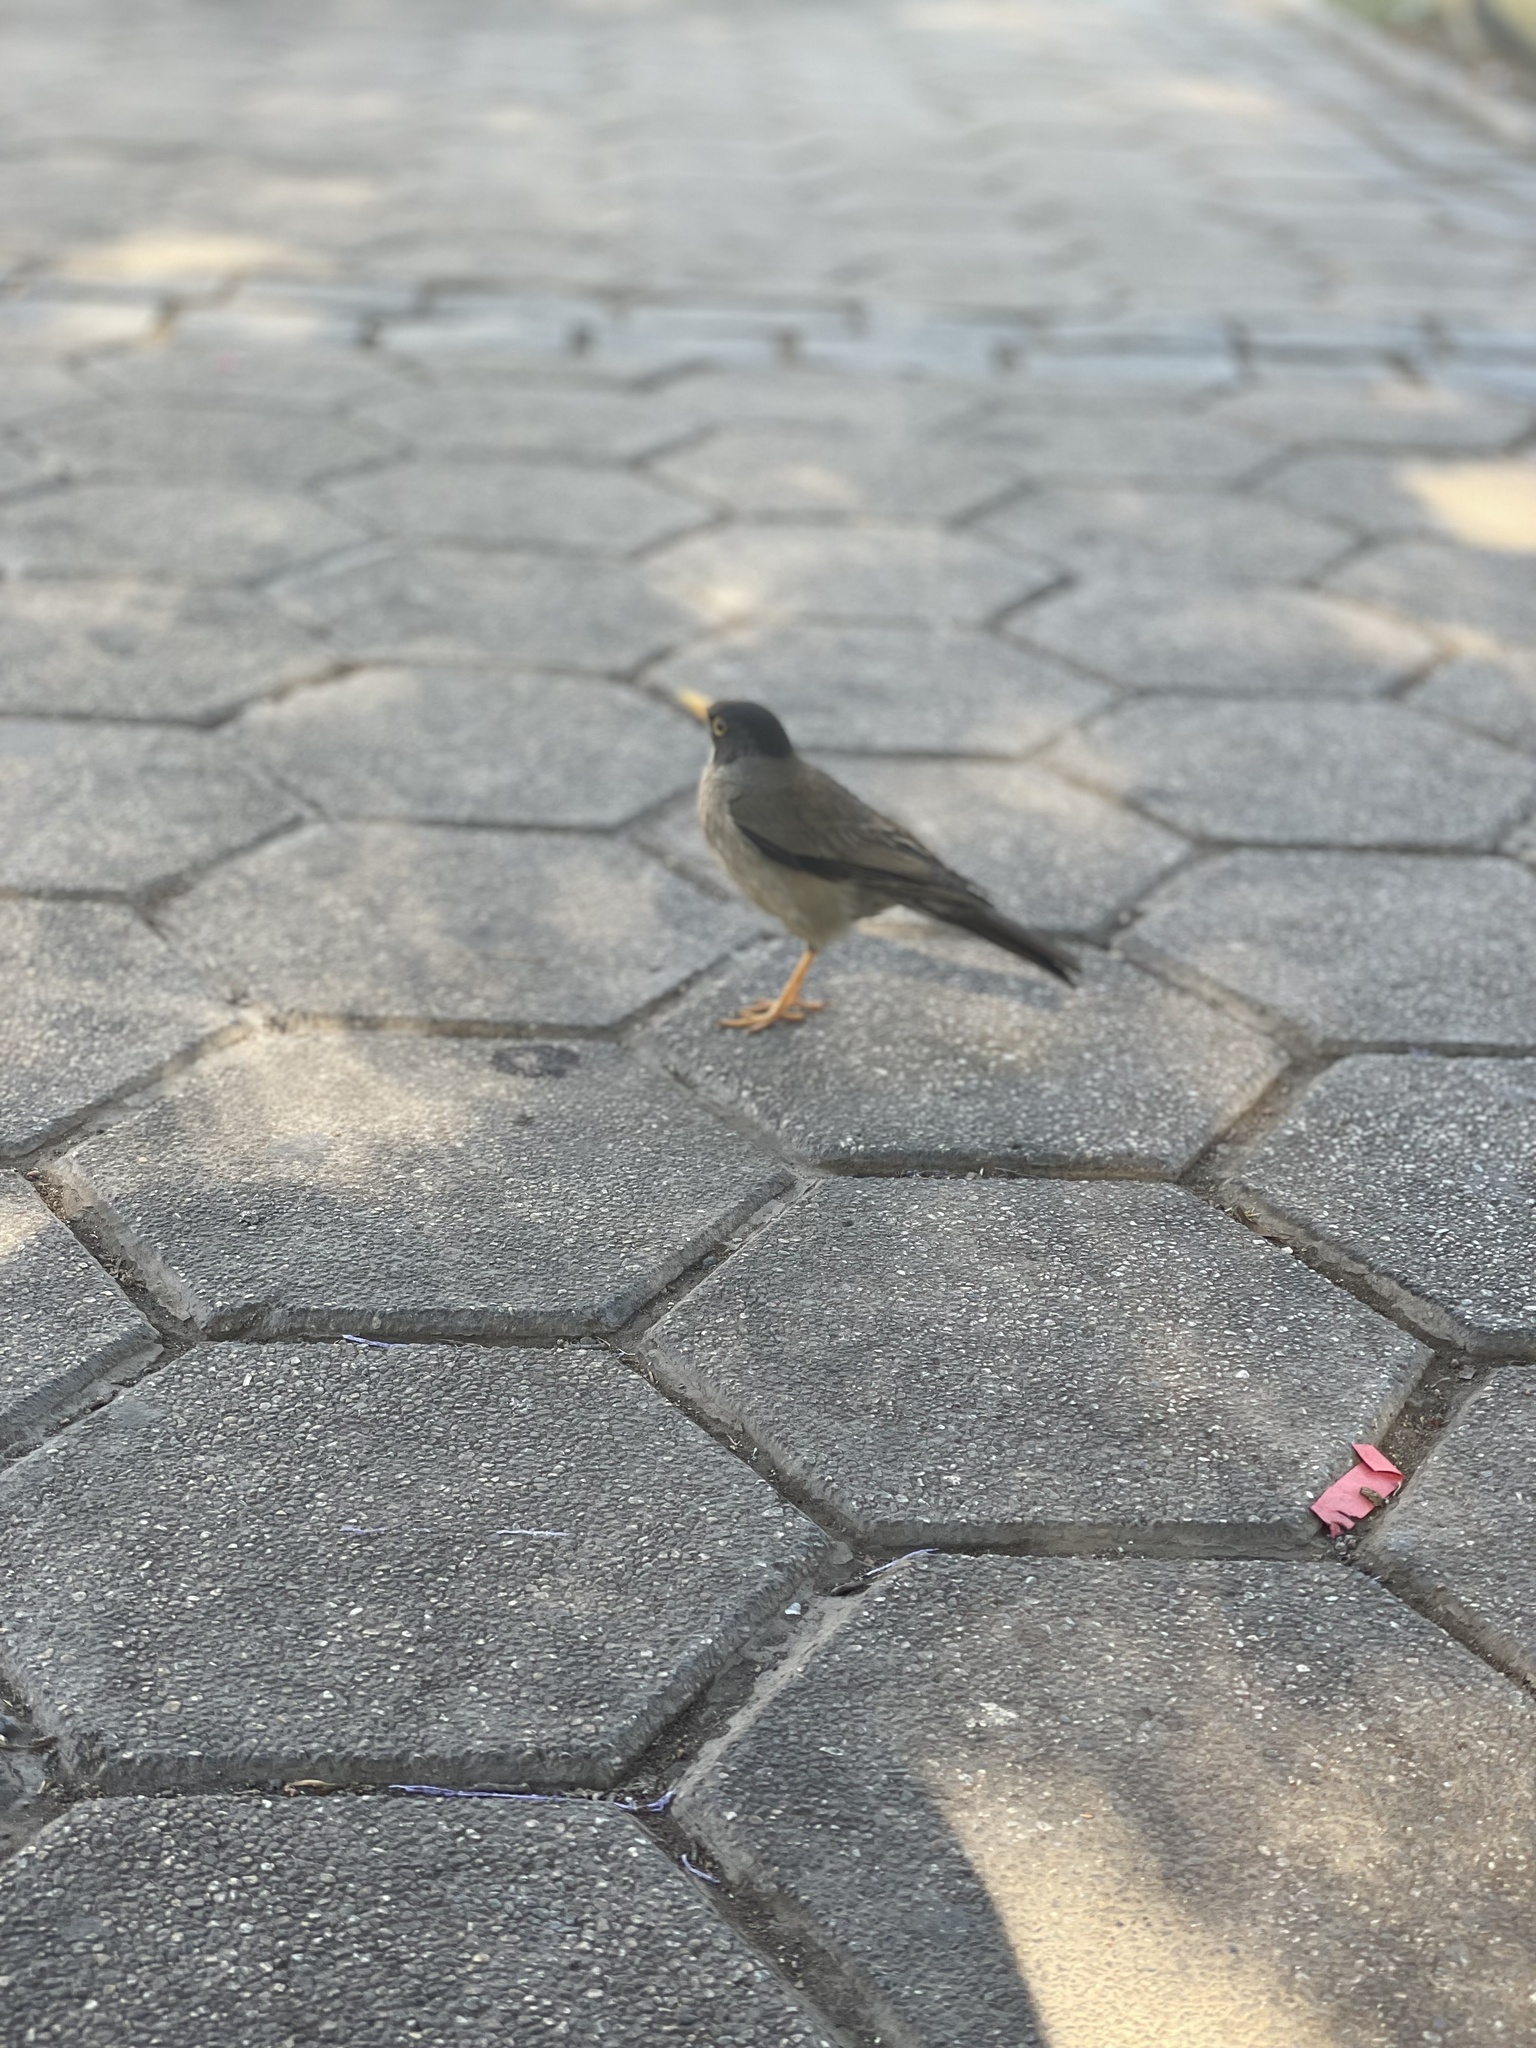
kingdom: Animalia
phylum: Chordata
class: Aves
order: Passeriformes
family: Turdidae
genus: Turdus
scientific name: Turdus falcklandii
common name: Austral thrush
